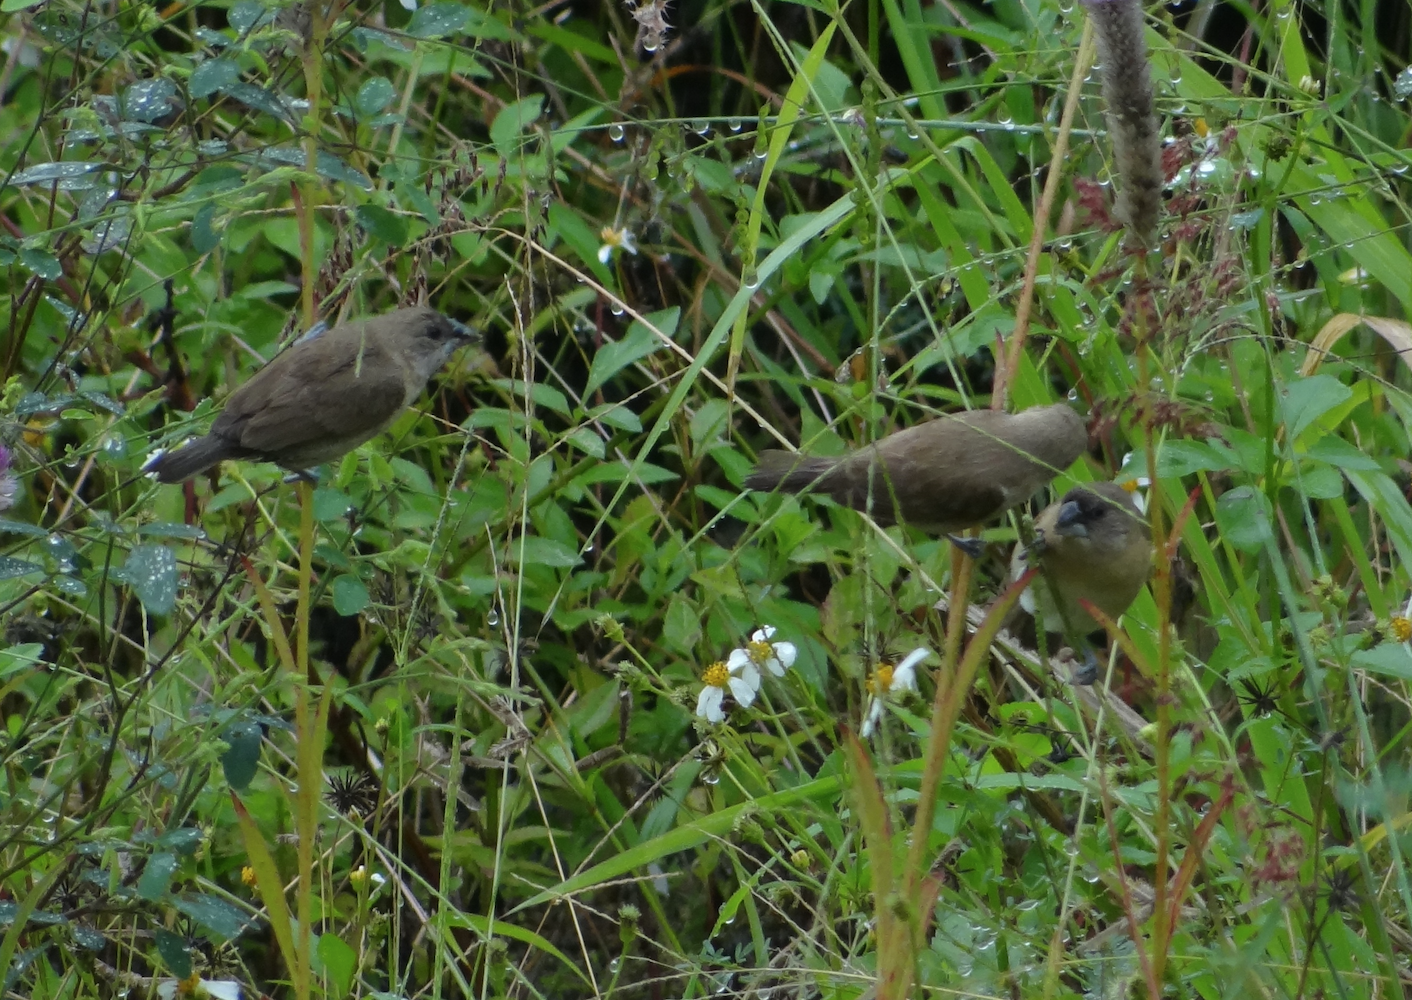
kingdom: Animalia
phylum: Chordata
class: Aves
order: Passeriformes
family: Estrildidae
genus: Lonchura
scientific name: Lonchura punctulata
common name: Scaly-breasted munia
